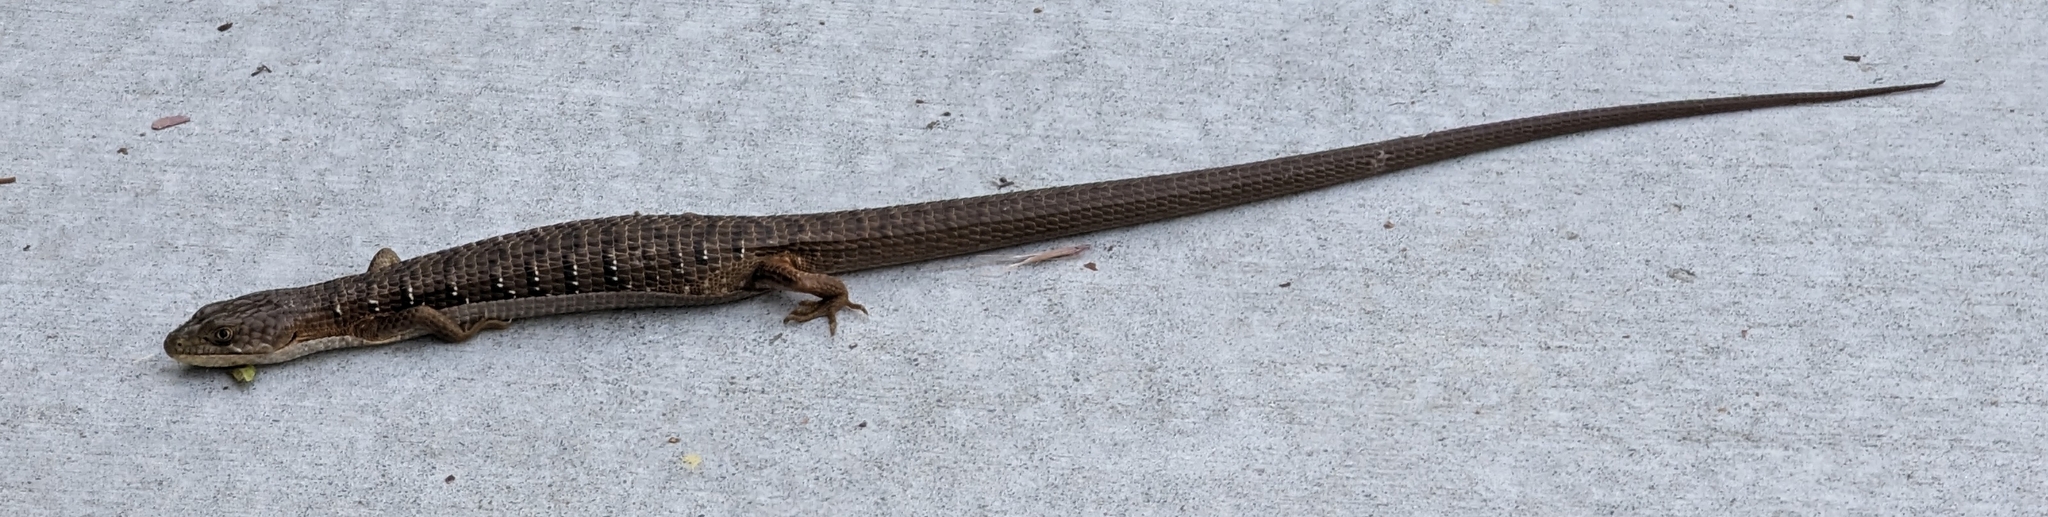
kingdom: Animalia
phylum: Chordata
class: Squamata
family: Anguidae
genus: Elgaria
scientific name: Elgaria multicarinata
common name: Southern alligator lizard
